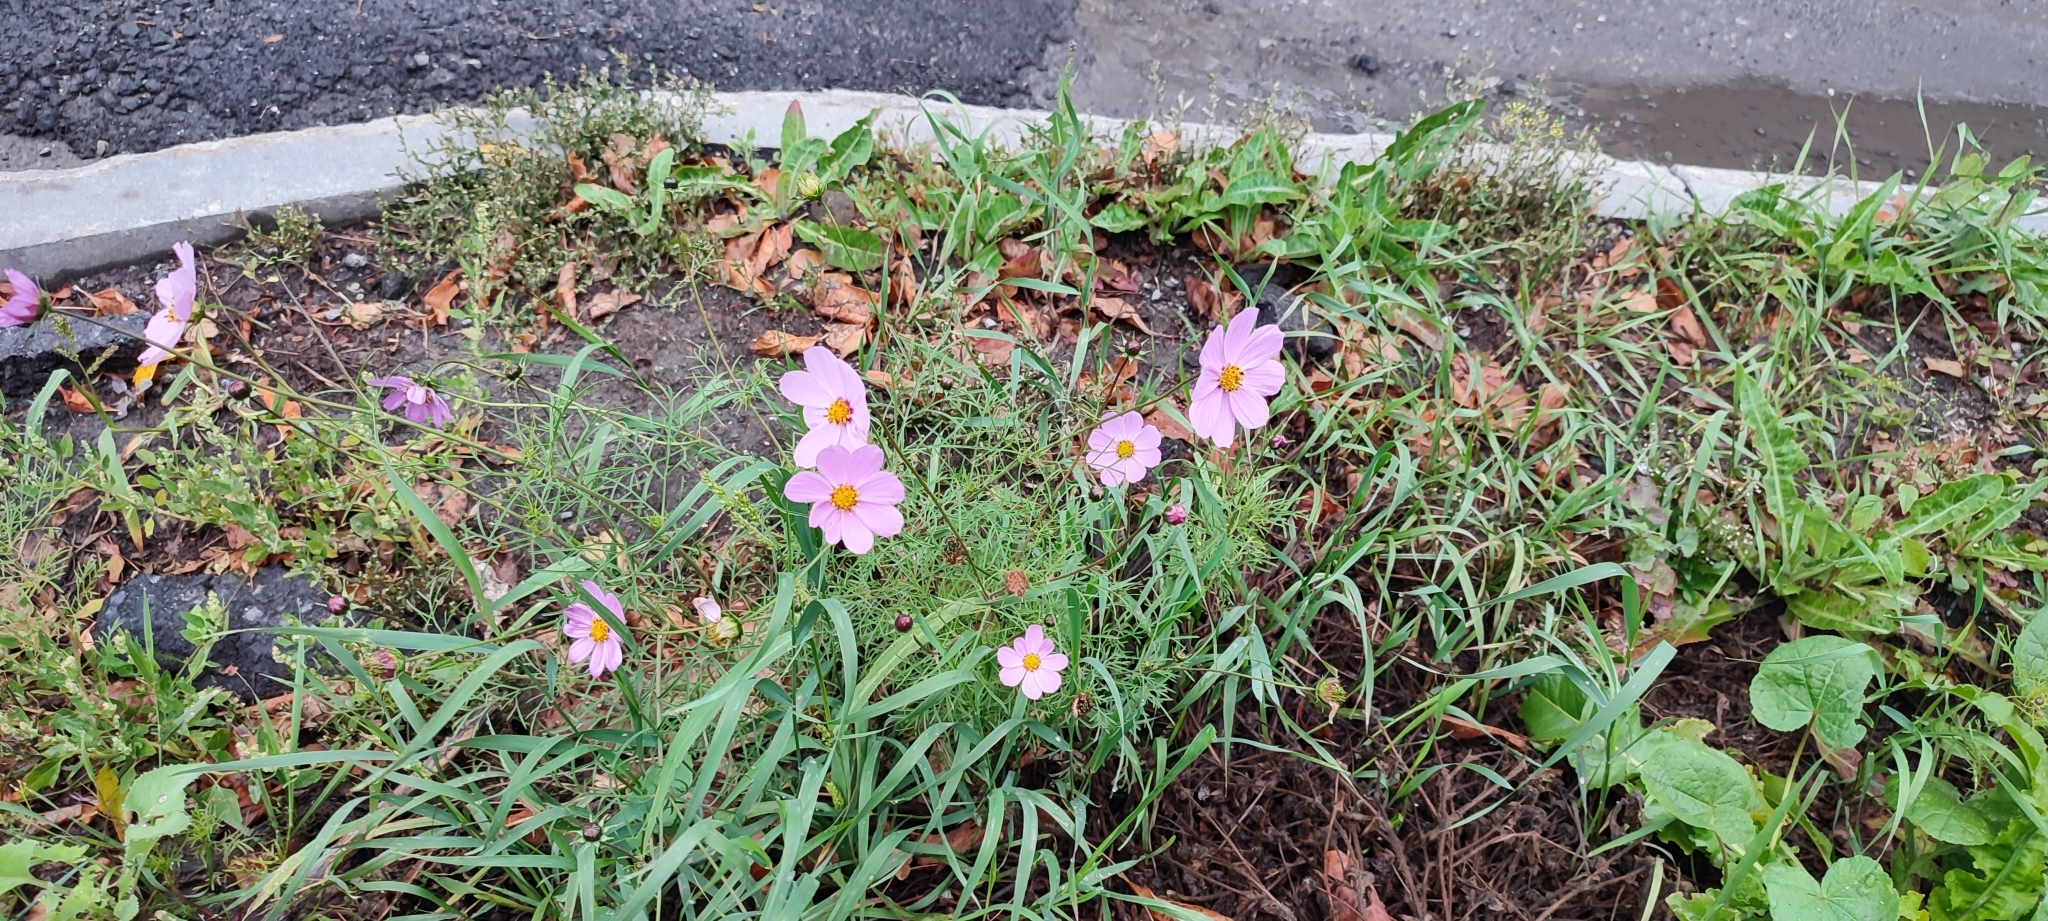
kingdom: Plantae
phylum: Tracheophyta
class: Magnoliopsida
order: Asterales
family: Asteraceae
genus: Cosmos
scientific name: Cosmos bipinnatus
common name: Garden cosmos
